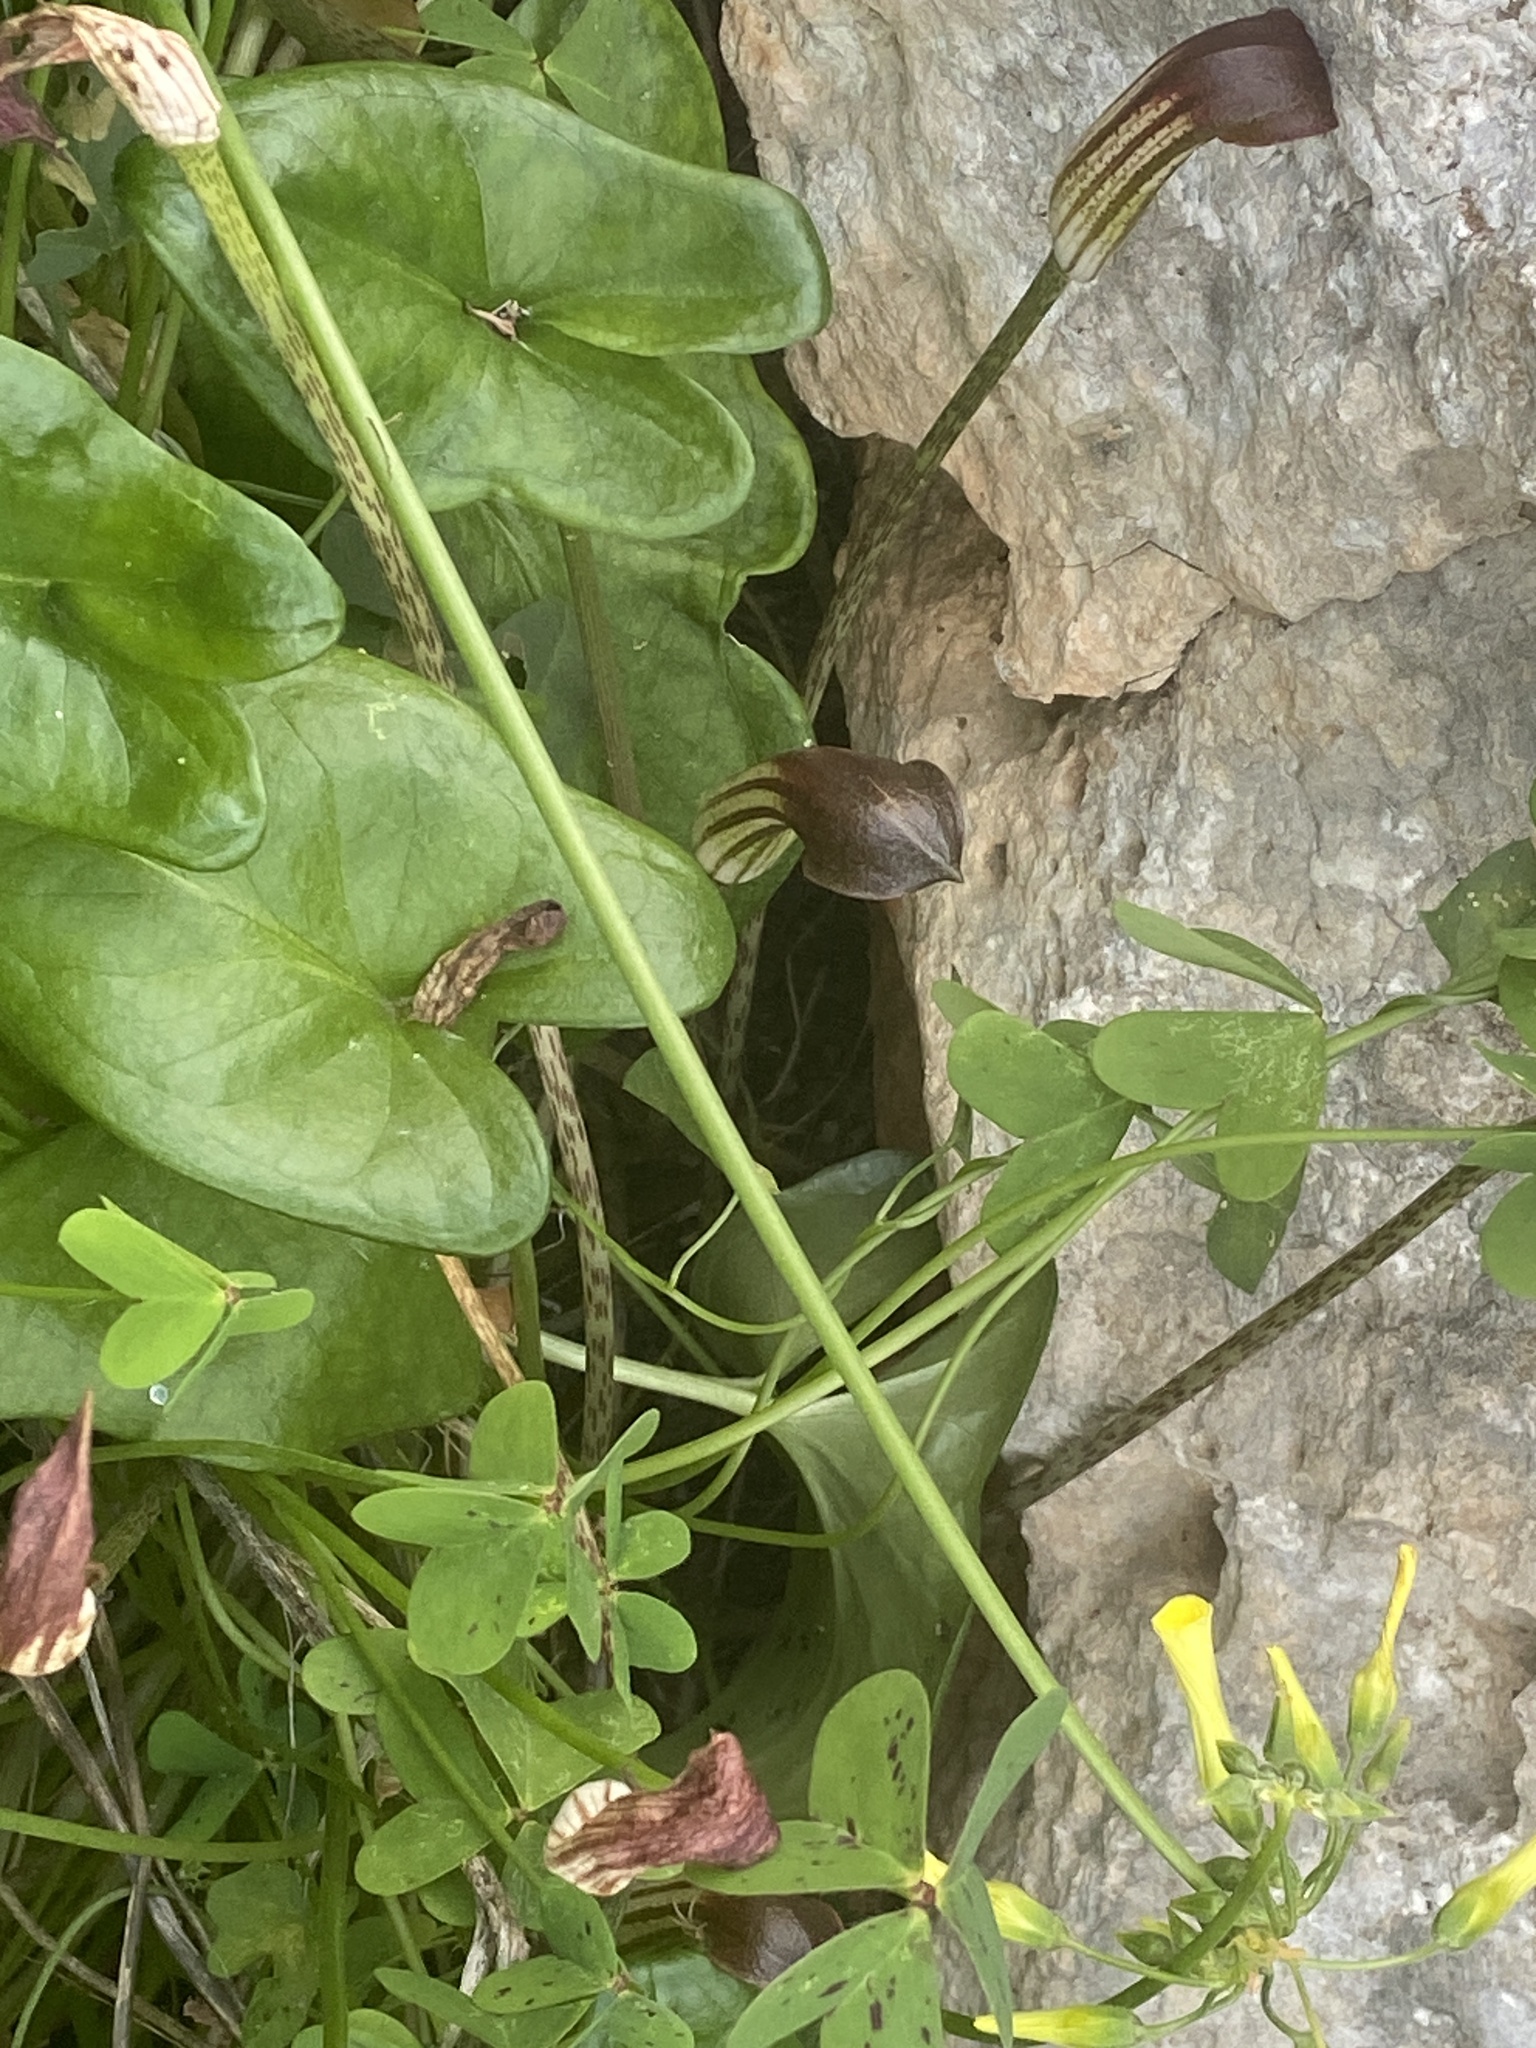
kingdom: Plantae
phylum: Tracheophyta
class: Liliopsida
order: Alismatales
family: Araceae
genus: Arisarum
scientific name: Arisarum vulgare
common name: Common arisarum
